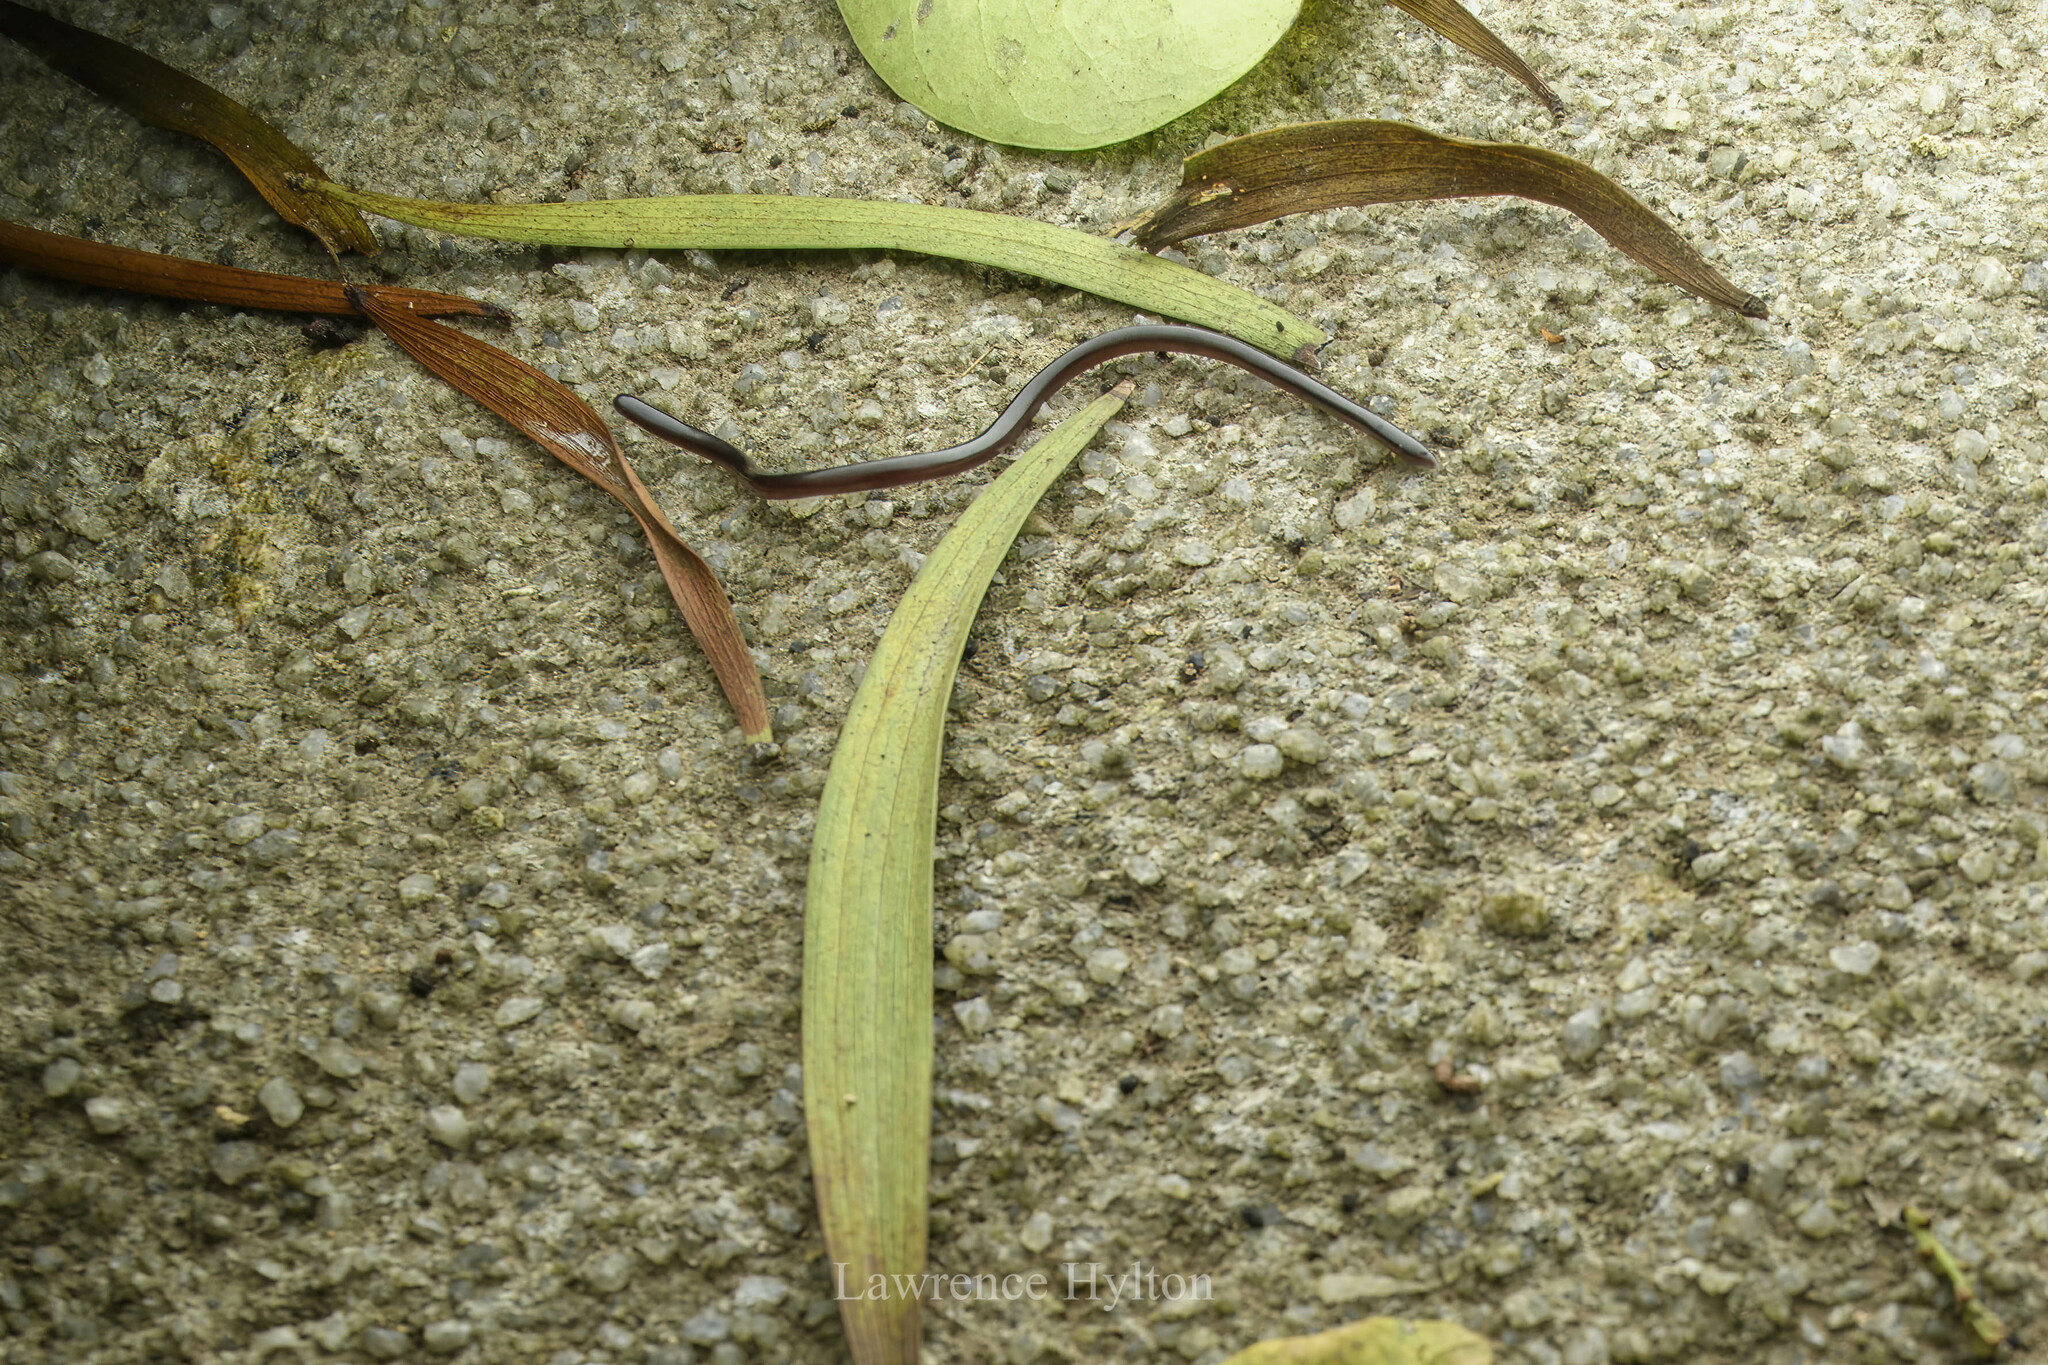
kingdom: Animalia
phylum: Chordata
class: Squamata
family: Typhlopidae
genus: Indotyphlops
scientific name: Indotyphlops braminus
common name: Brahminy blindsnake
